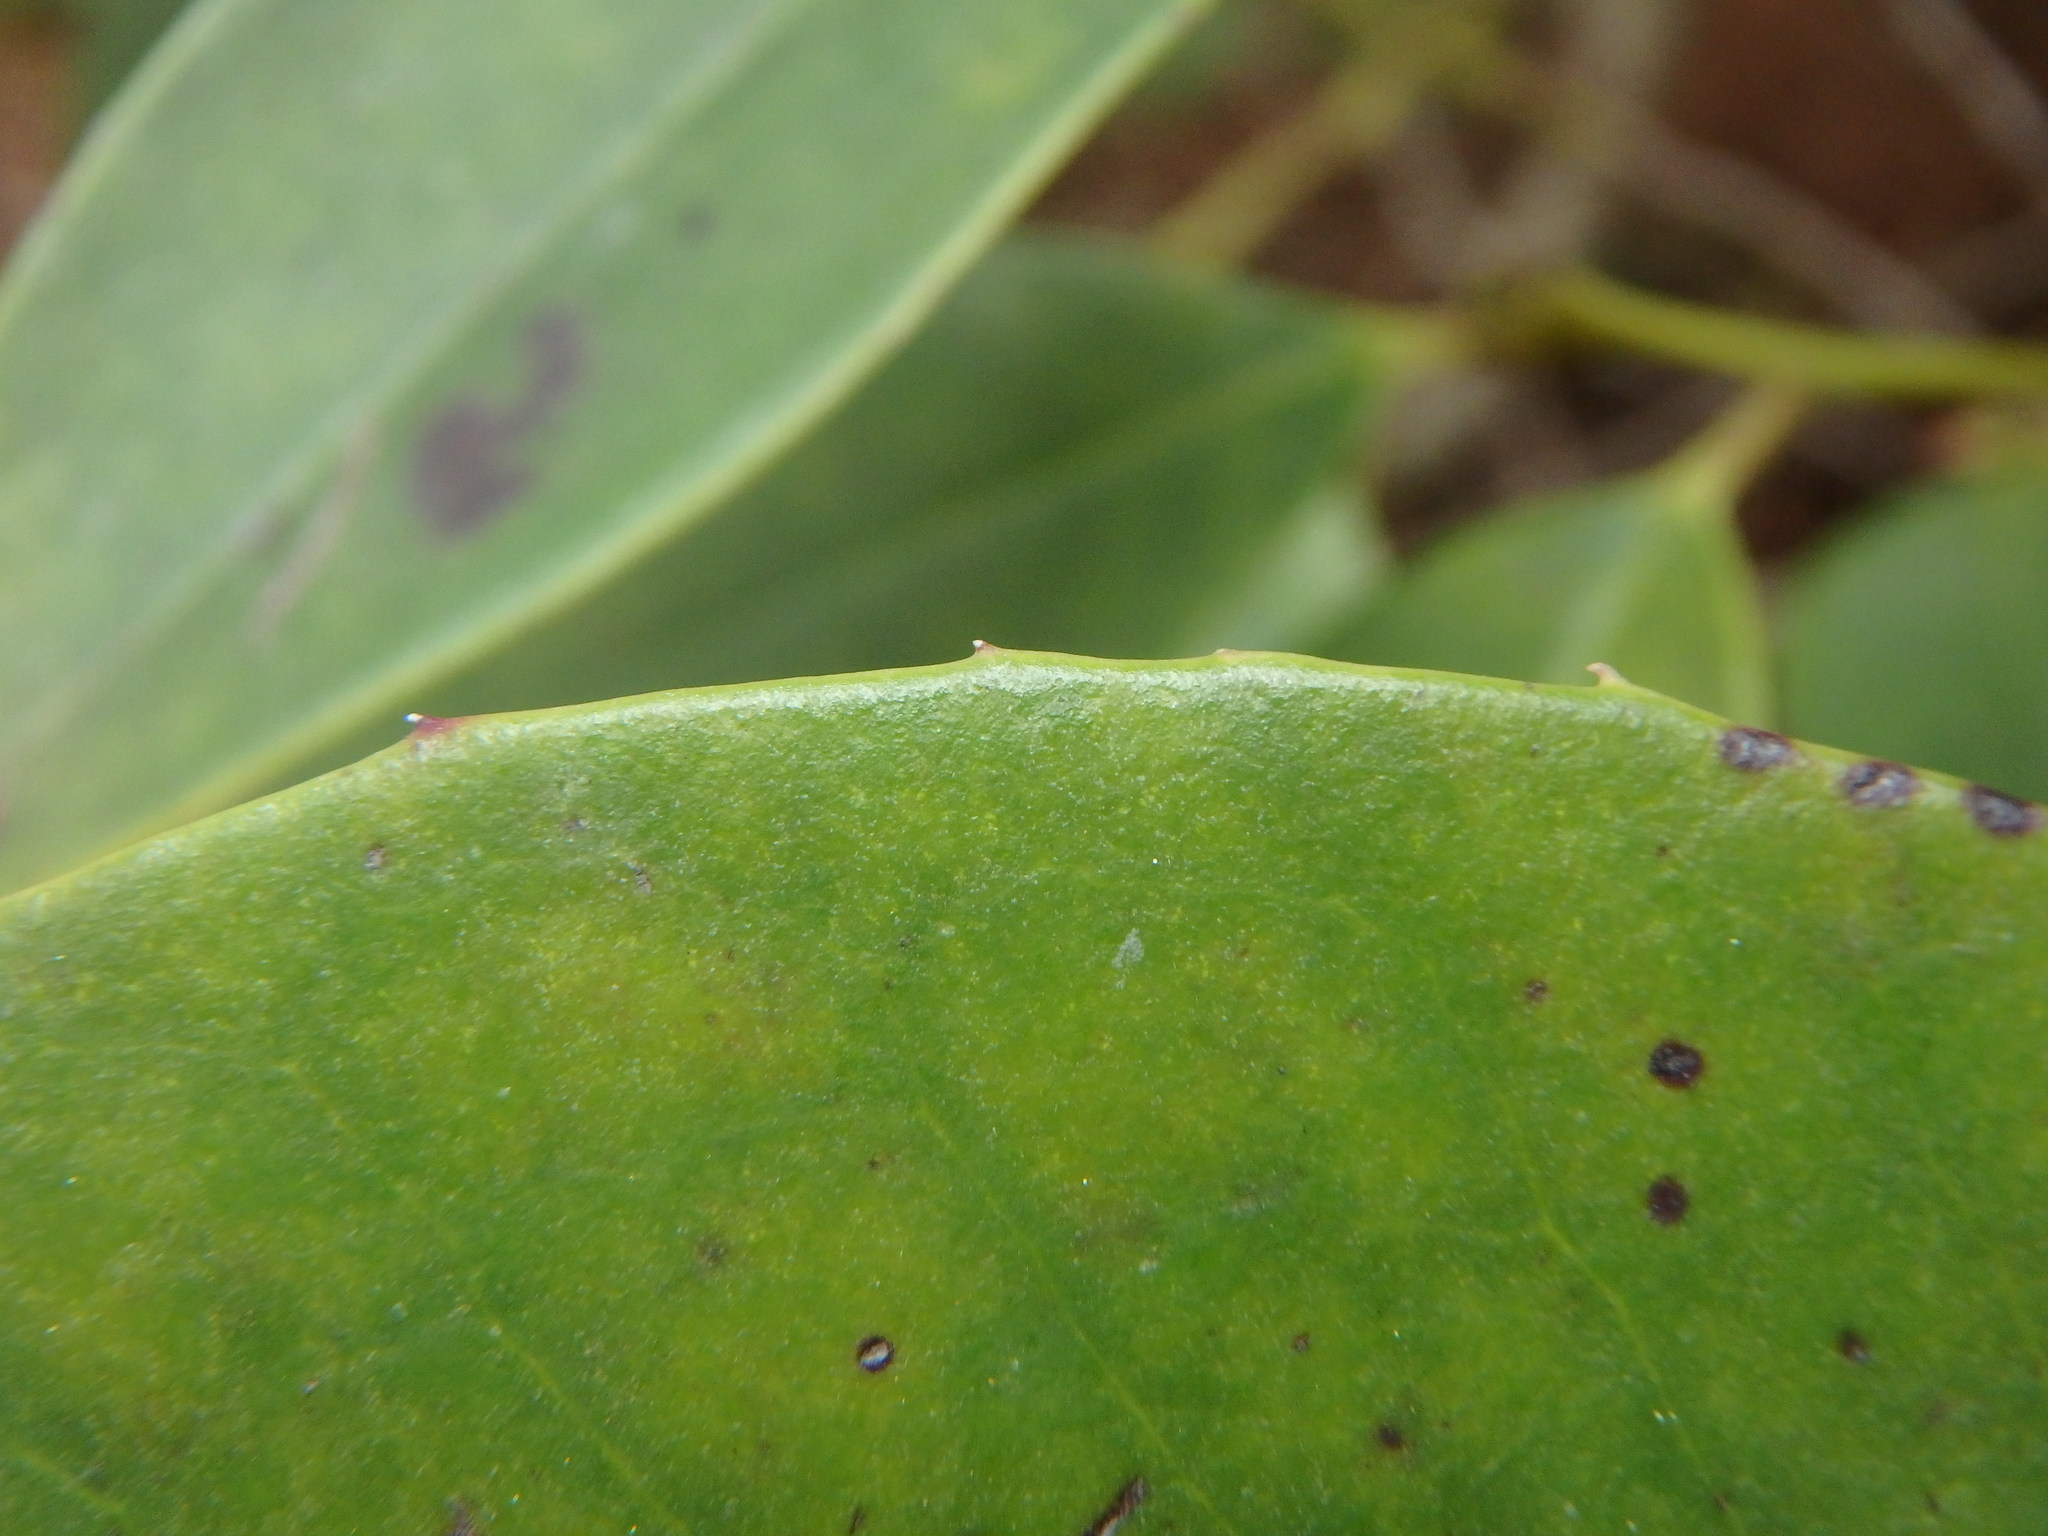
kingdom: Plantae
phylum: Tracheophyta
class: Magnoliopsida
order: Aquifoliales
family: Aquifoliaceae
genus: Ilex
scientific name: Ilex canariensis
